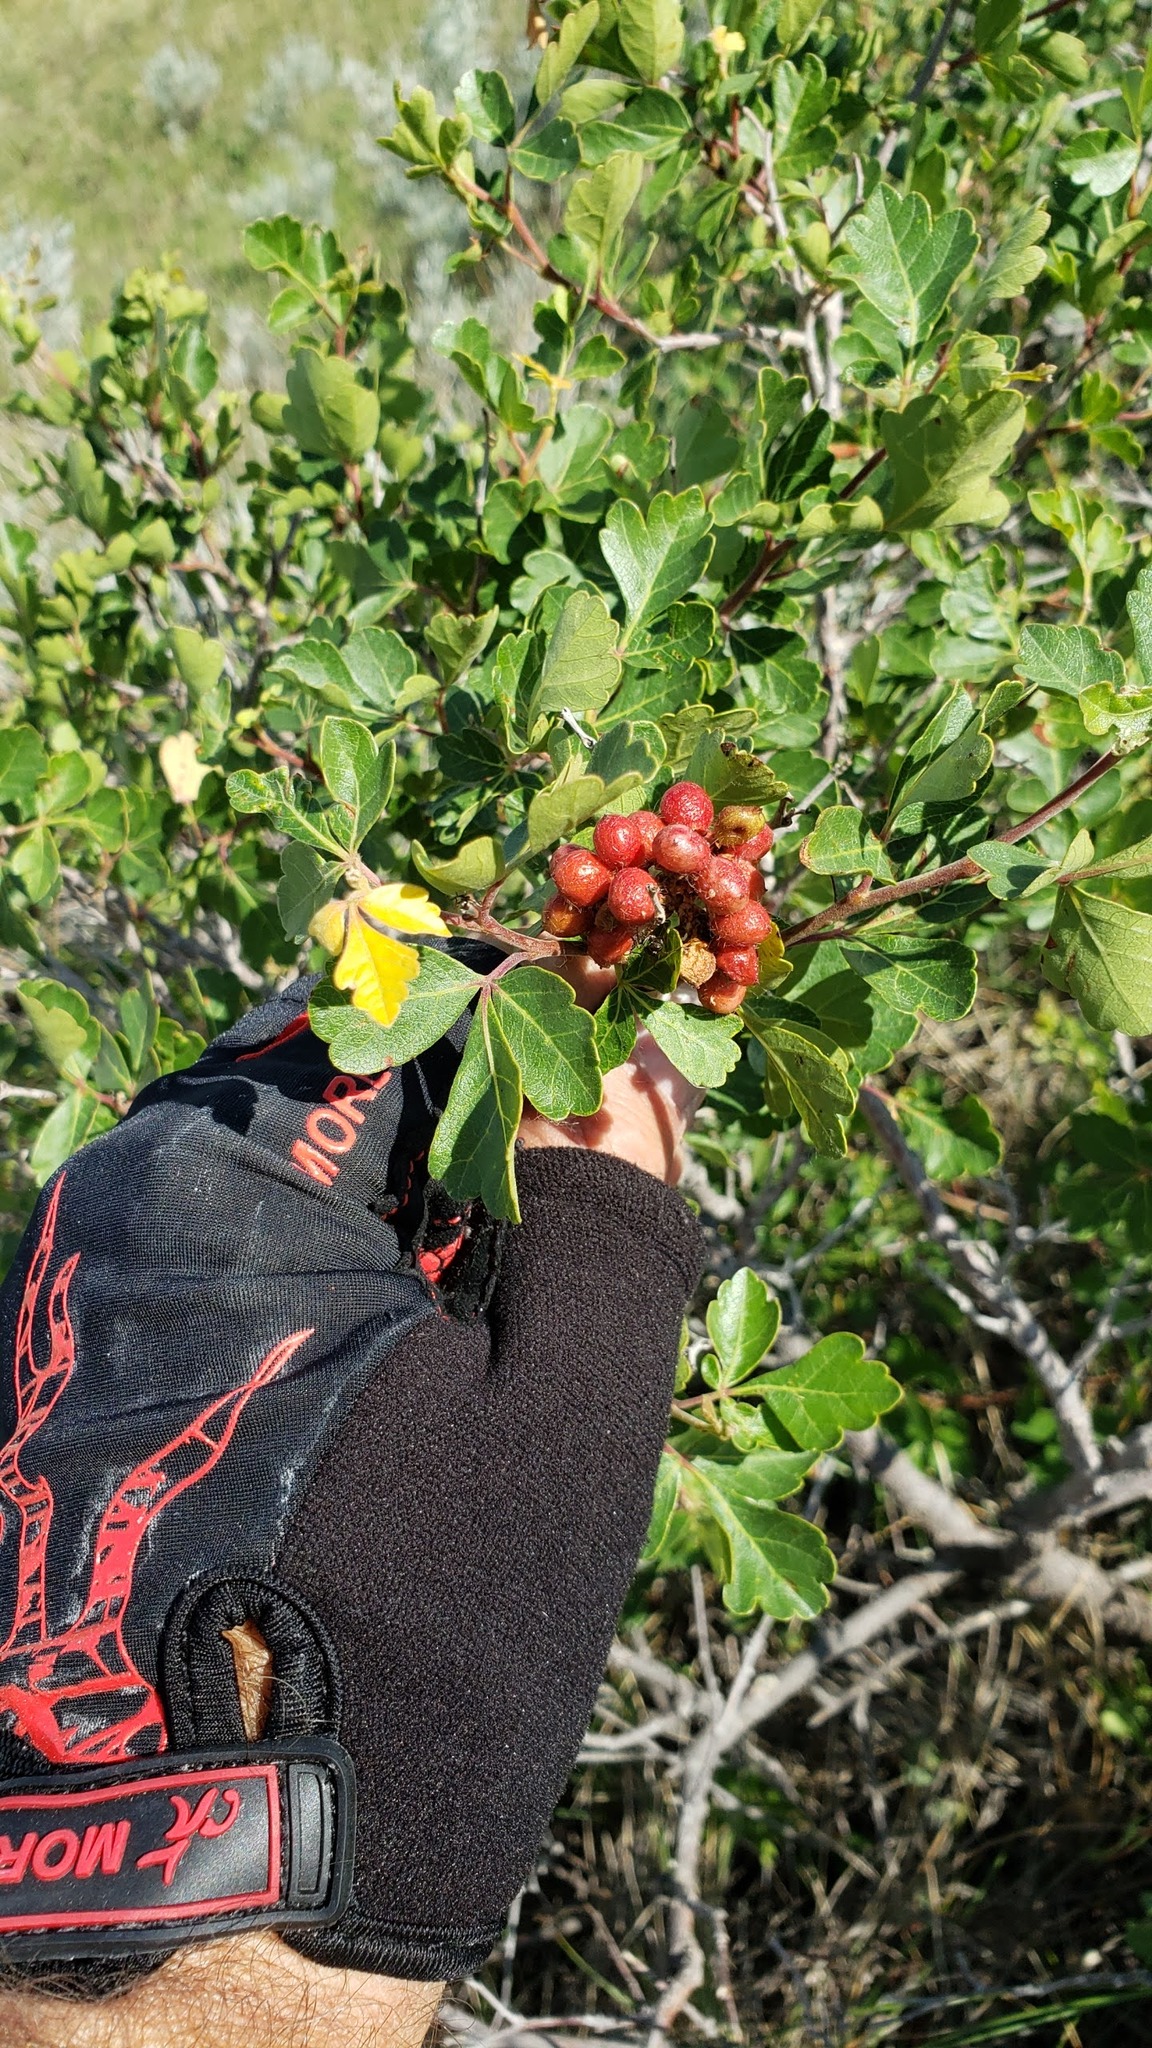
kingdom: Plantae
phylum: Tracheophyta
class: Magnoliopsida
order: Sapindales
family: Anacardiaceae
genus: Rhus
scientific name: Rhus aromatica
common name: Aromatic sumac
